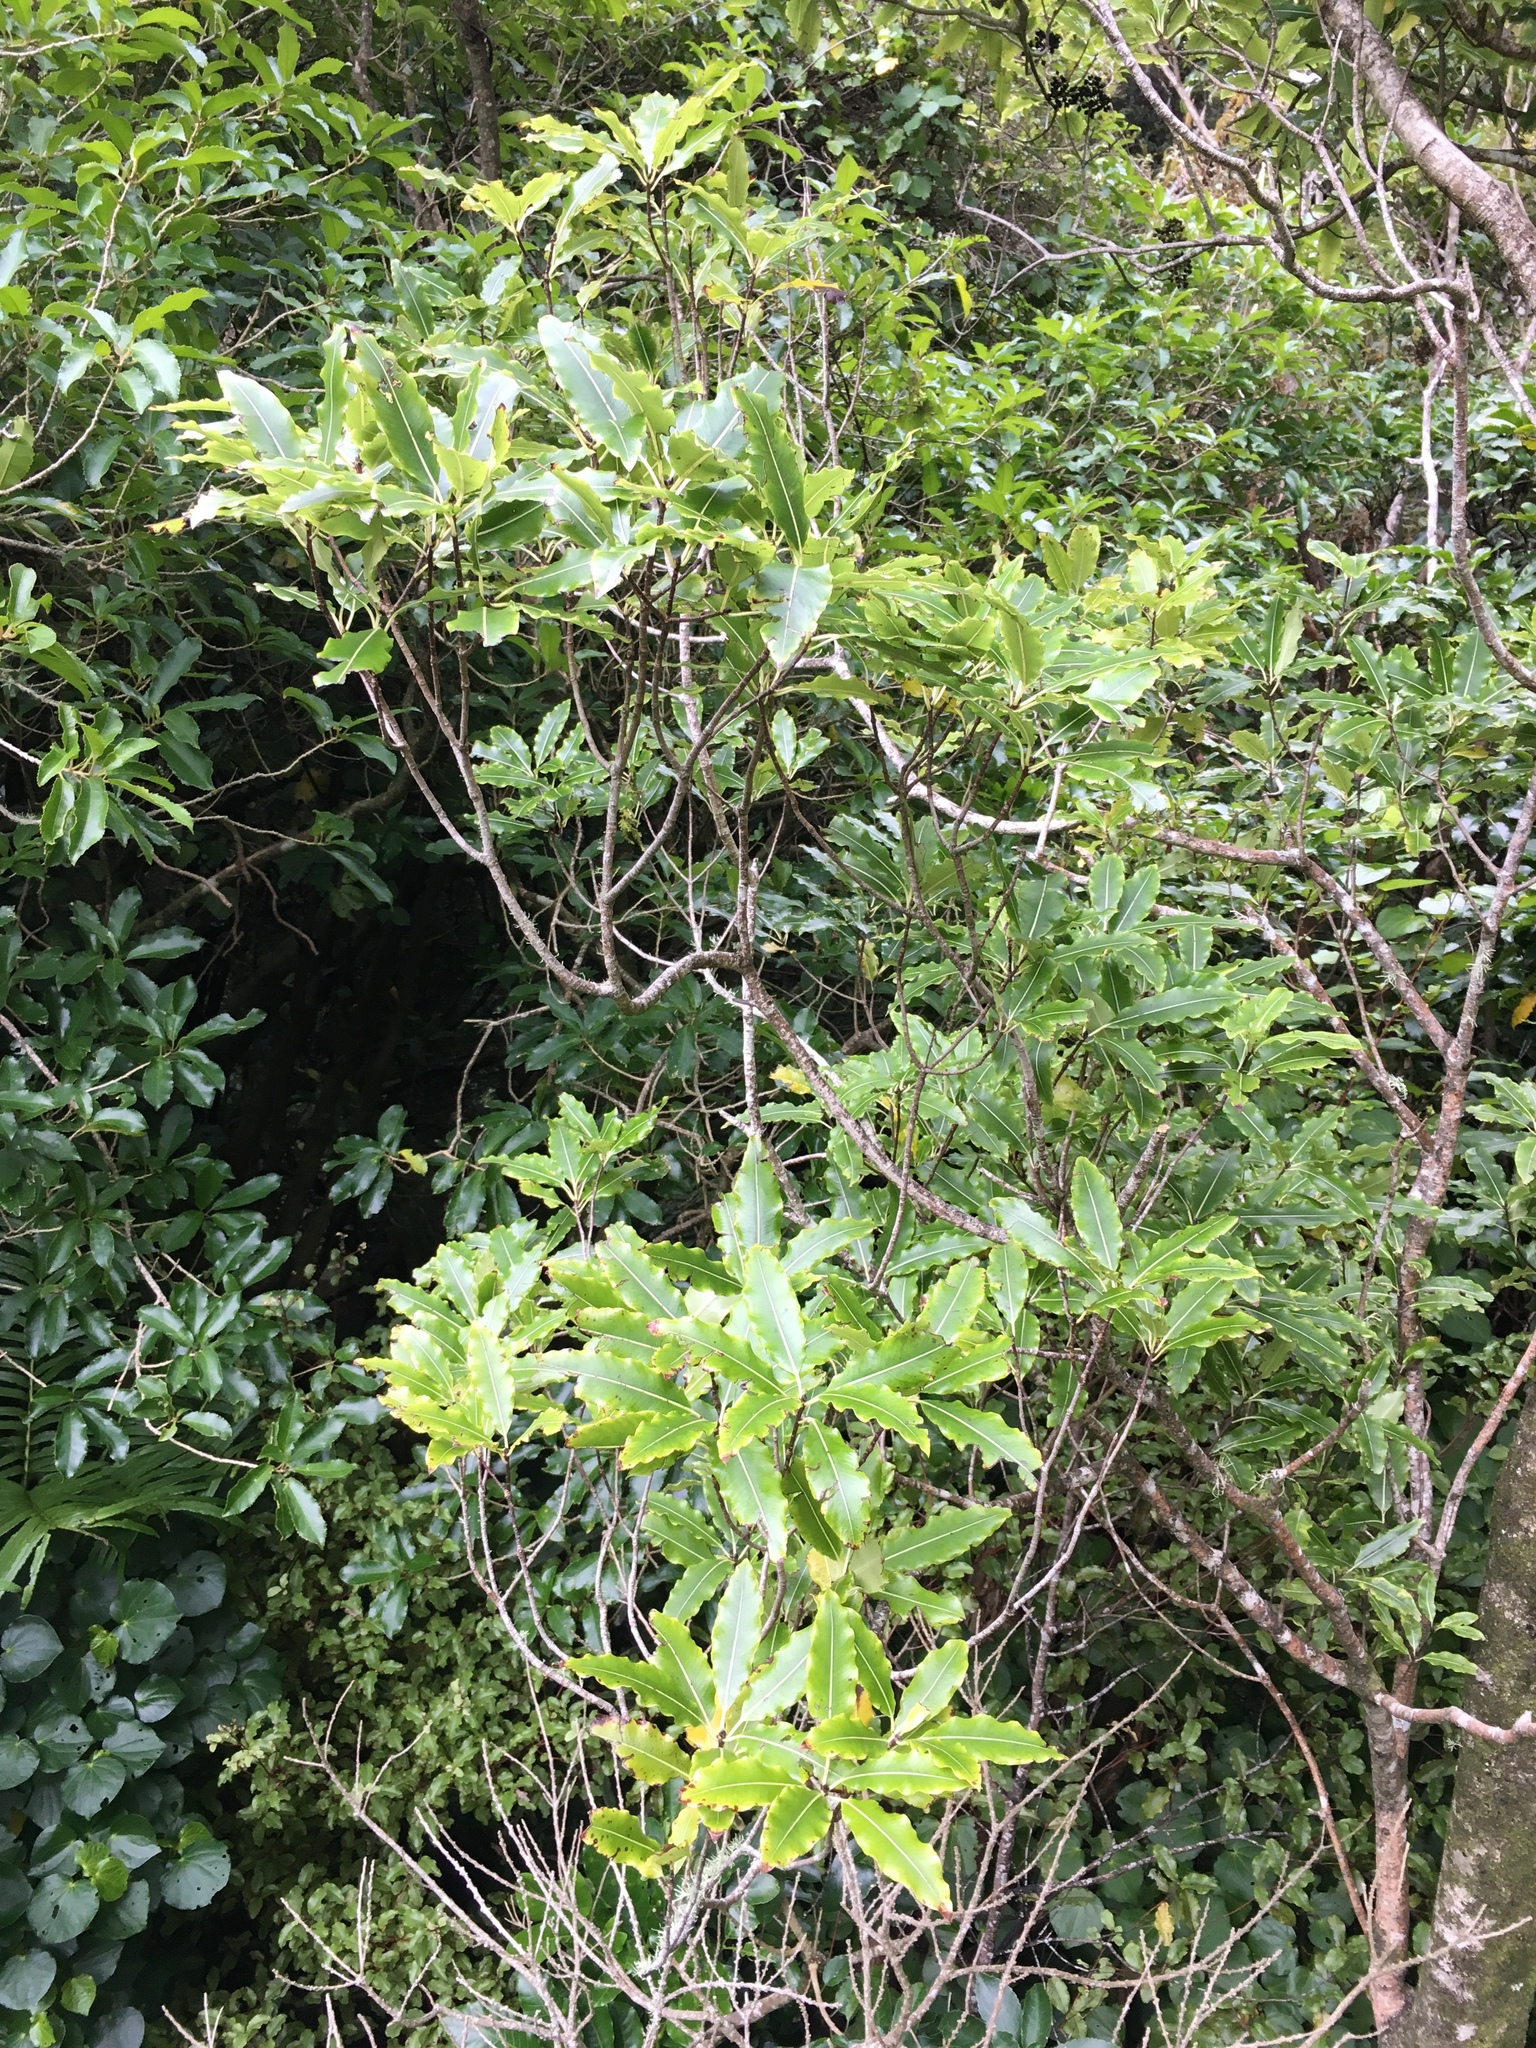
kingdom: Plantae
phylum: Tracheophyta
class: Magnoliopsida
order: Apiales
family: Pittosporaceae
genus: Pittosporum
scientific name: Pittosporum eugenioides
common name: Lemonwood
